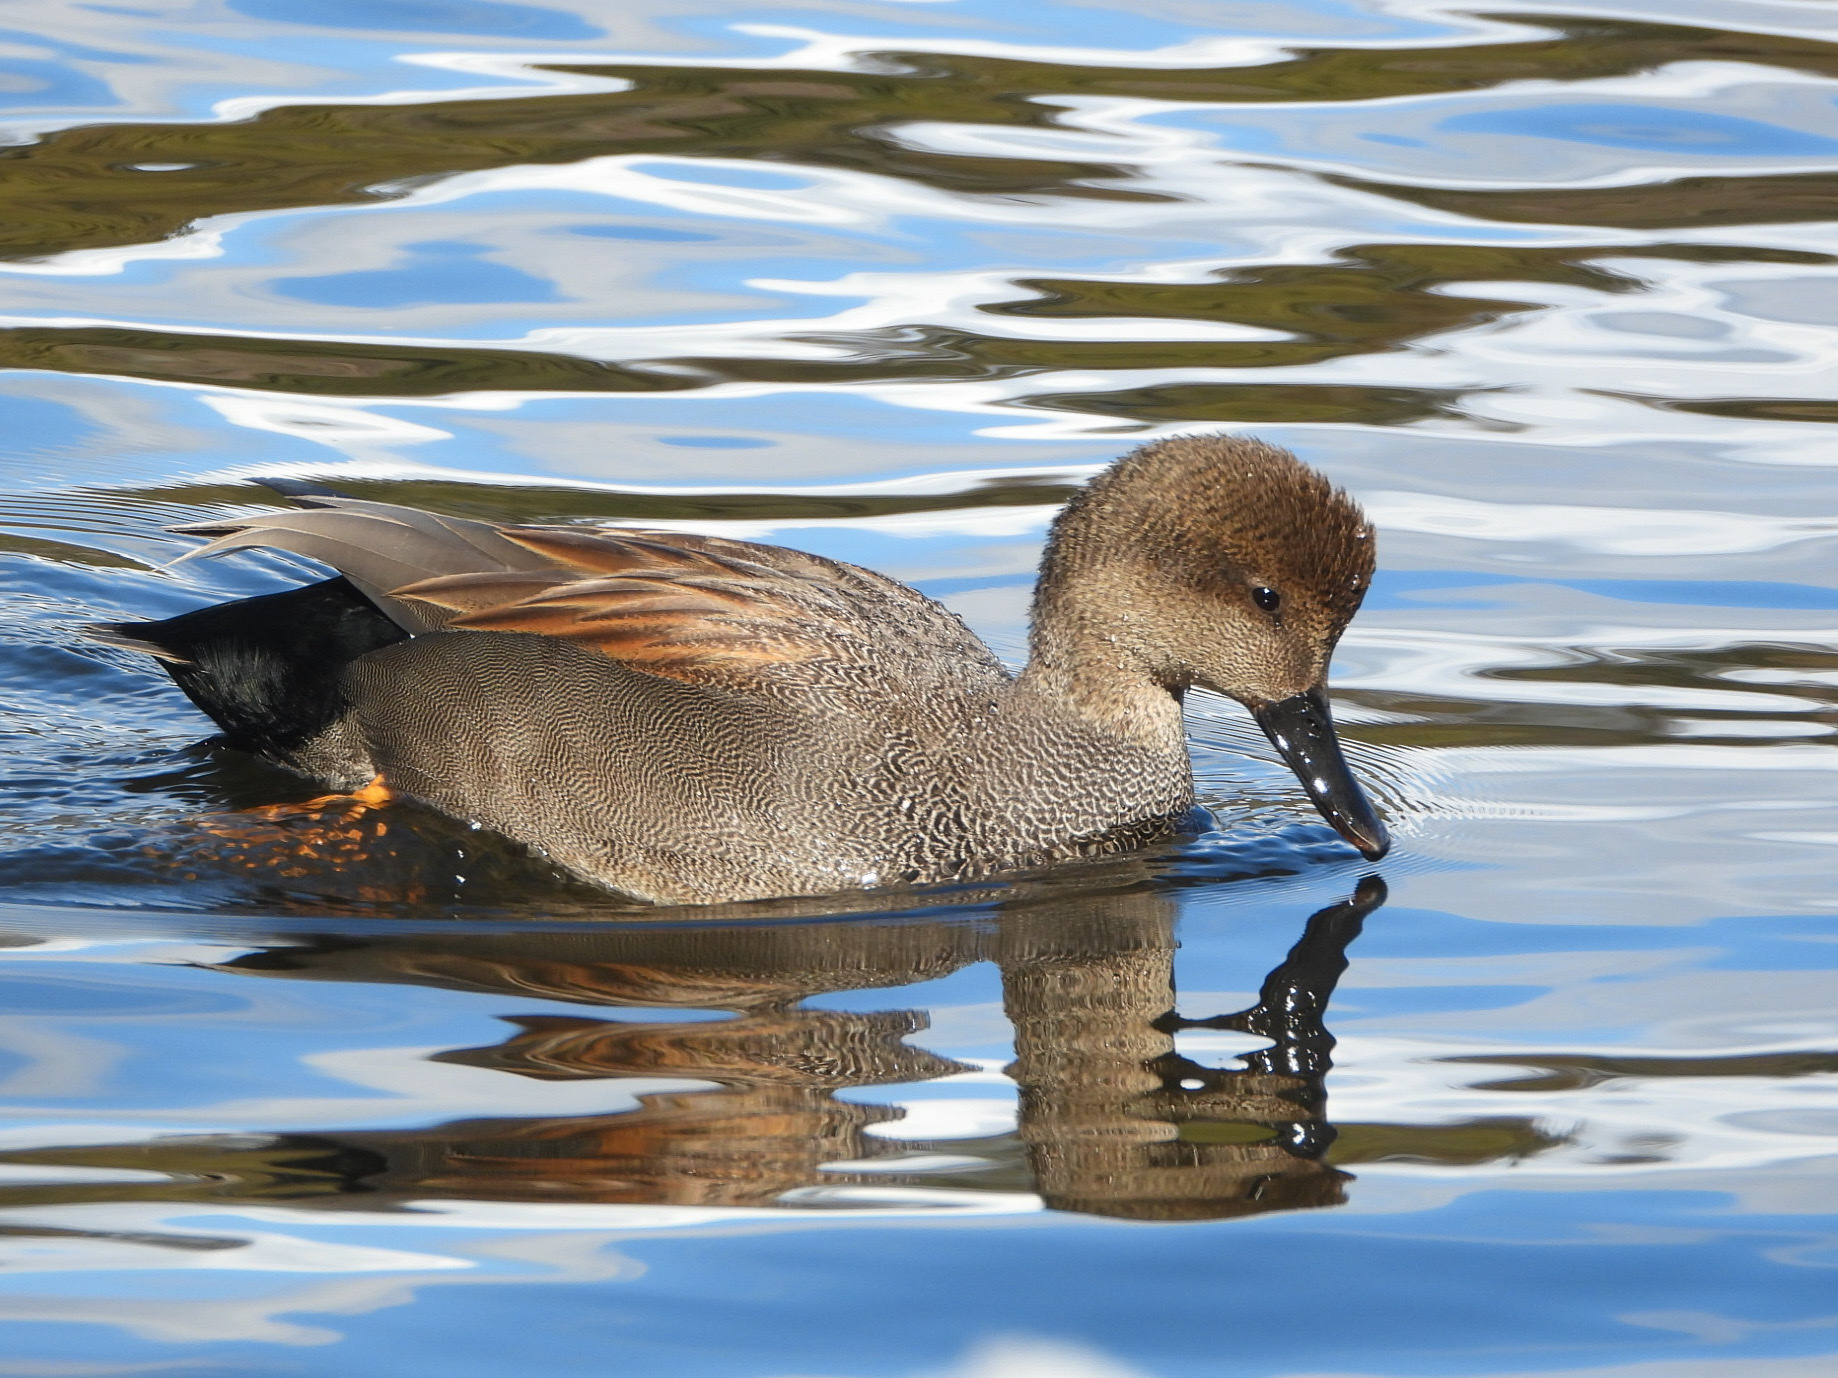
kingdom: Animalia
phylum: Chordata
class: Aves
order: Anseriformes
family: Anatidae
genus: Mareca
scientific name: Mareca strepera
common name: Gadwall
